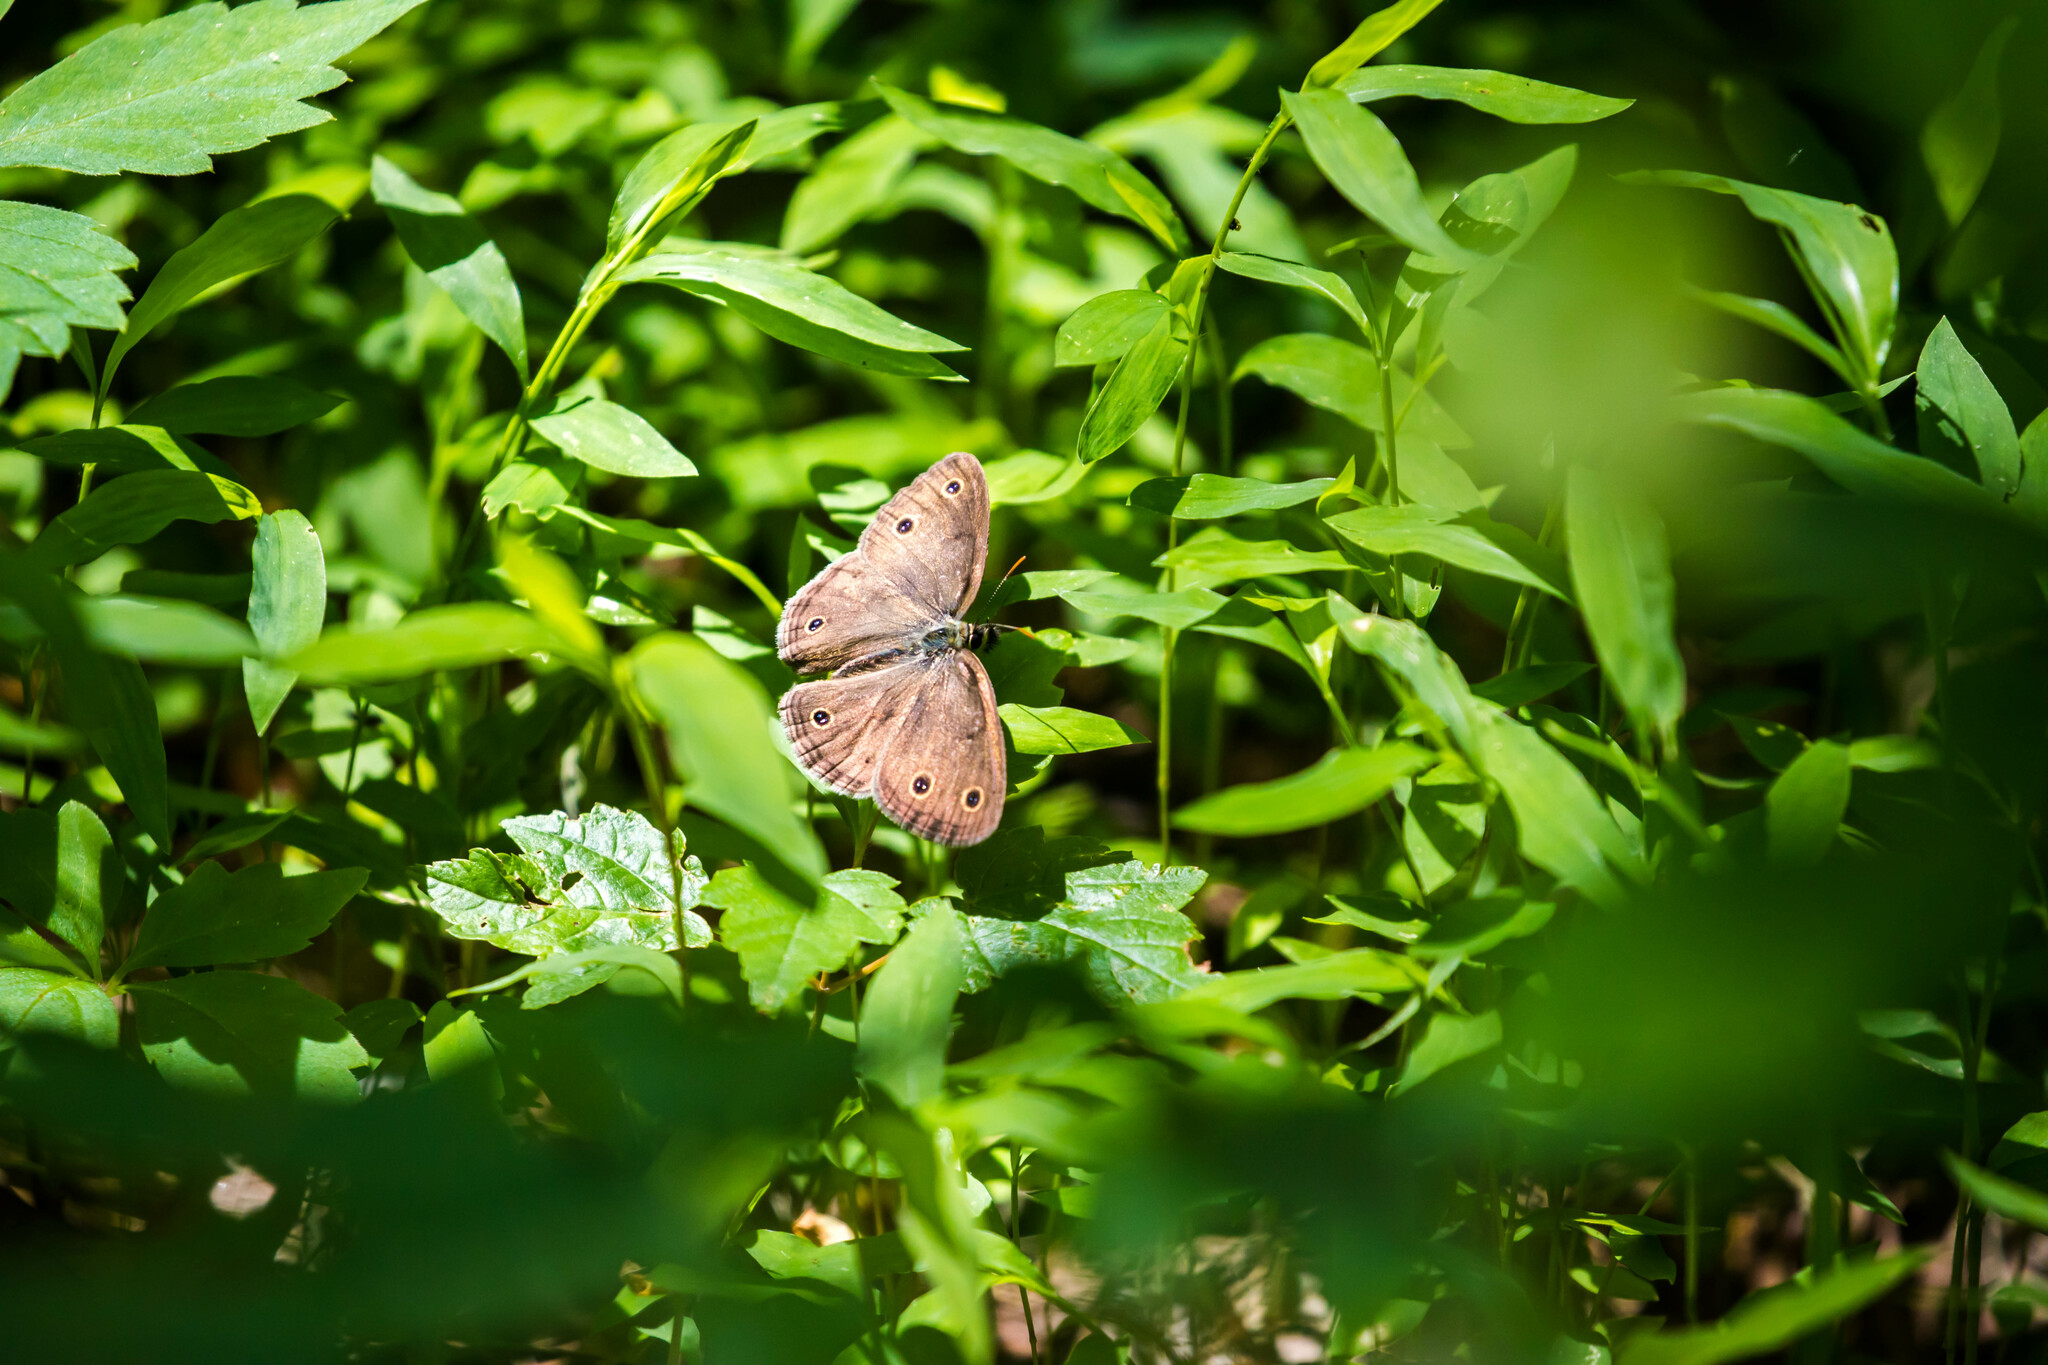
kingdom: Animalia
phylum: Arthropoda
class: Insecta
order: Lepidoptera
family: Nymphalidae
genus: Euptychia
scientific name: Euptychia cymela
